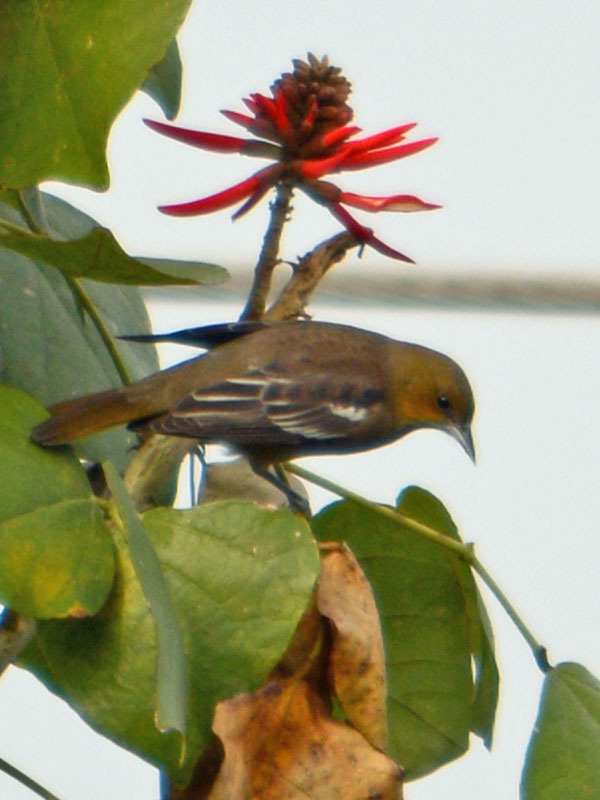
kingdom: Animalia
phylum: Chordata
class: Aves
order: Passeriformes
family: Icteridae
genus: Icterus
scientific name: Icterus bullockii
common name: Bullock's oriole
